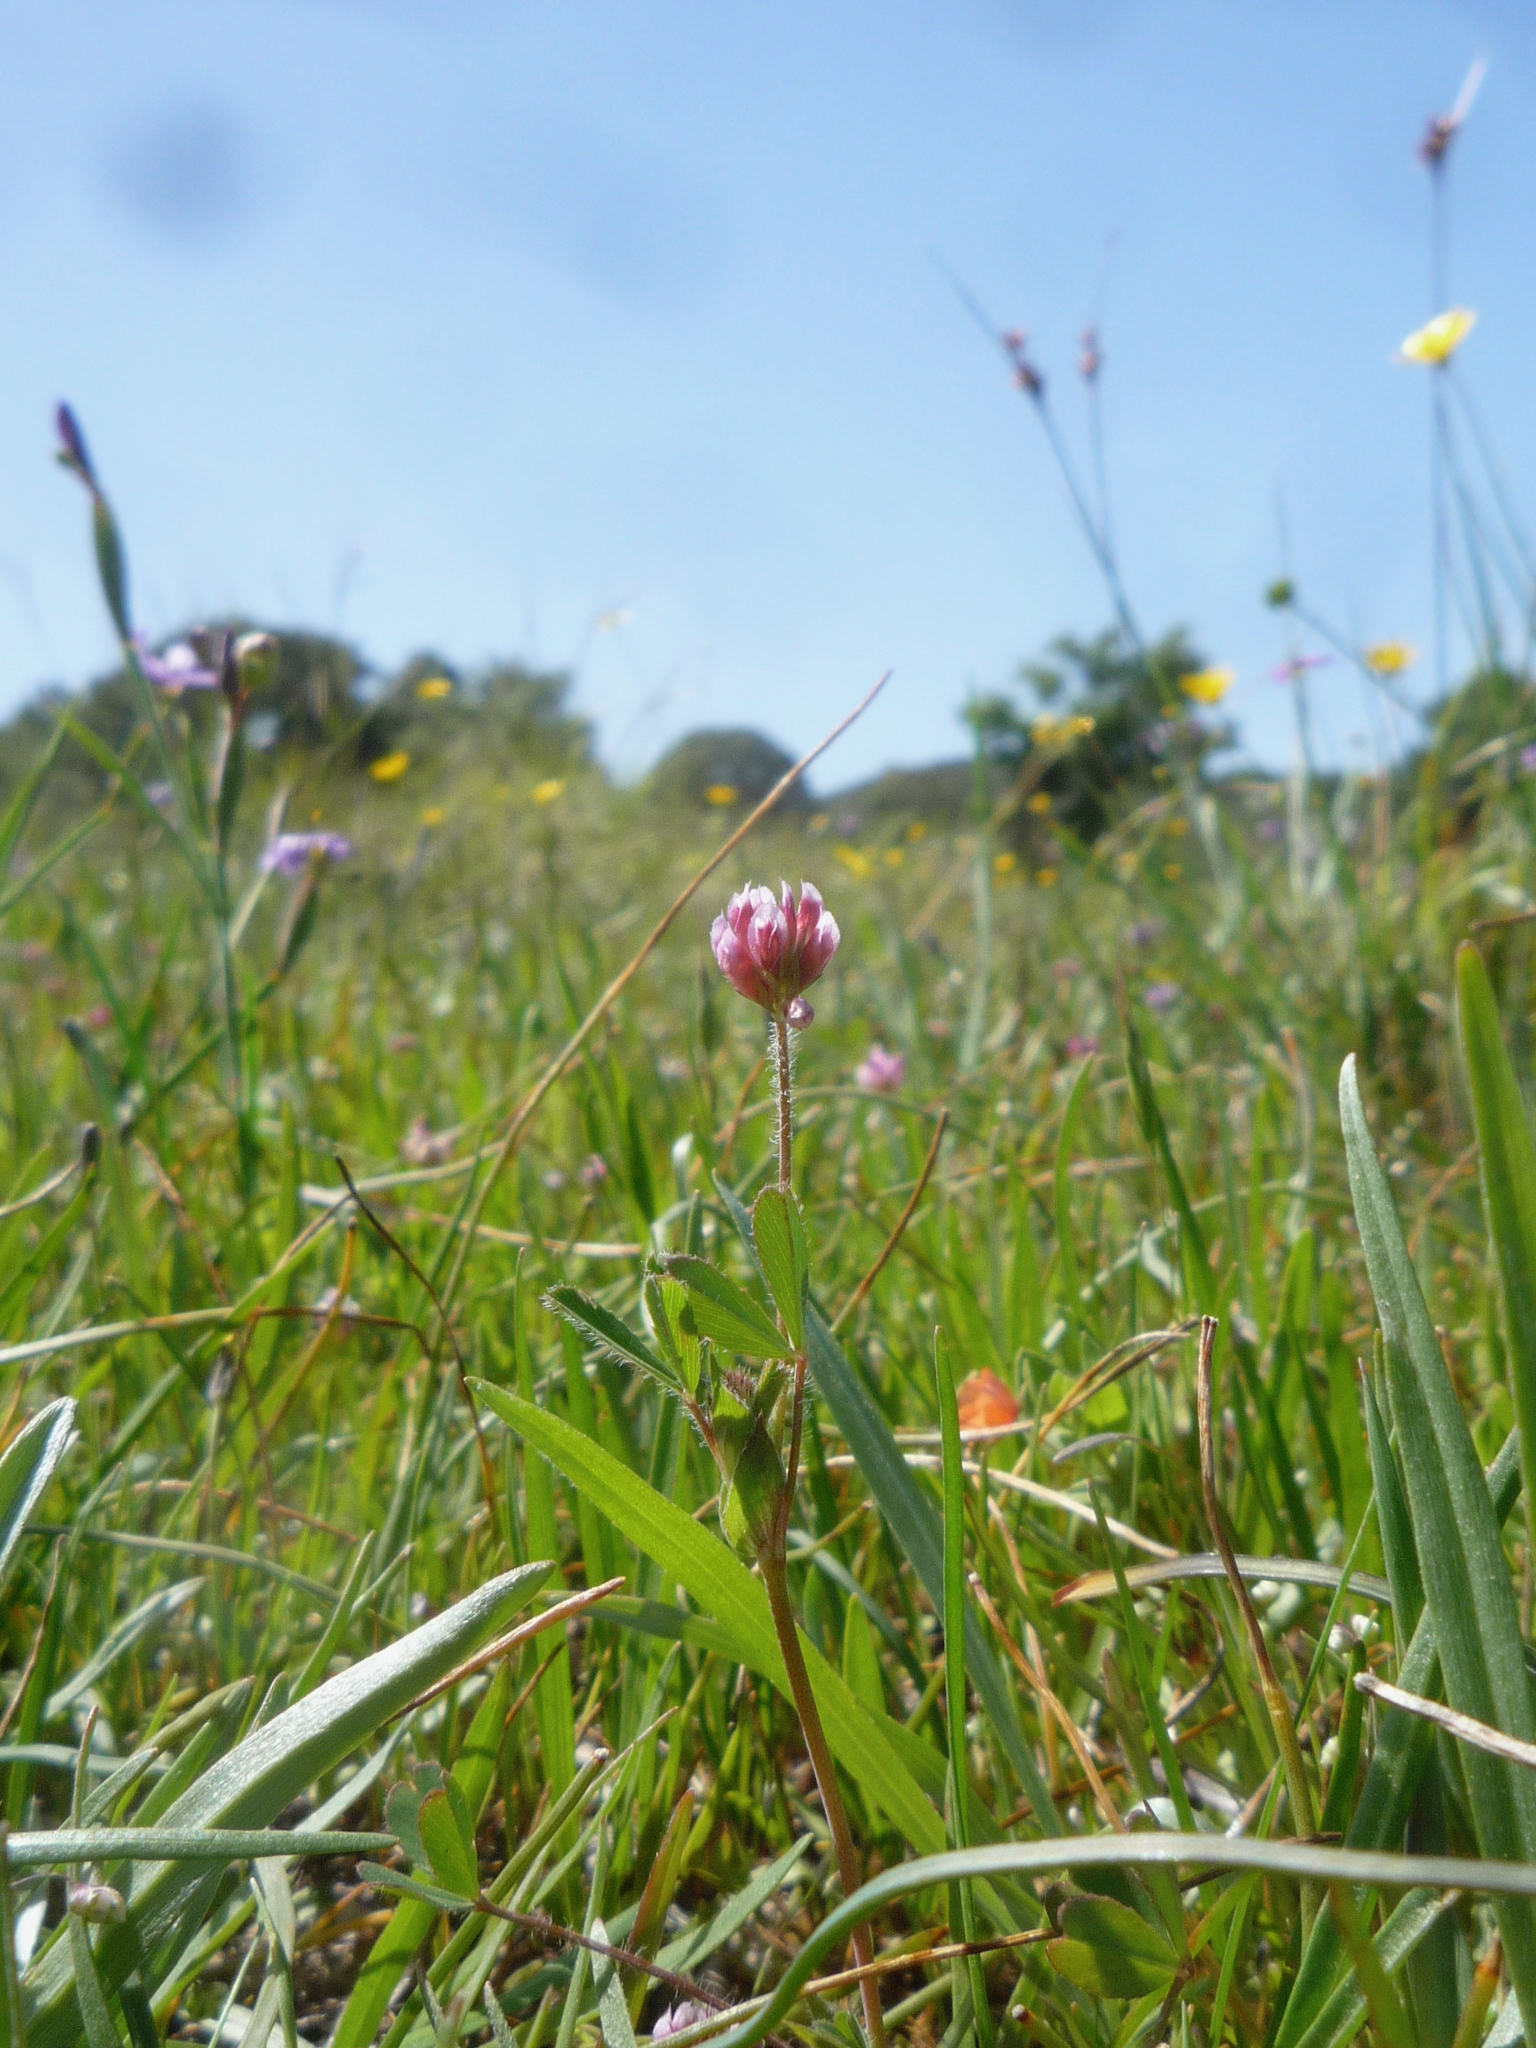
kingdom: Plantae
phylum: Tracheophyta
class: Magnoliopsida
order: Fabales
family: Fabaceae
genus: Trifolium
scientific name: Trifolium bifidum
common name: Notch-leaf clover
